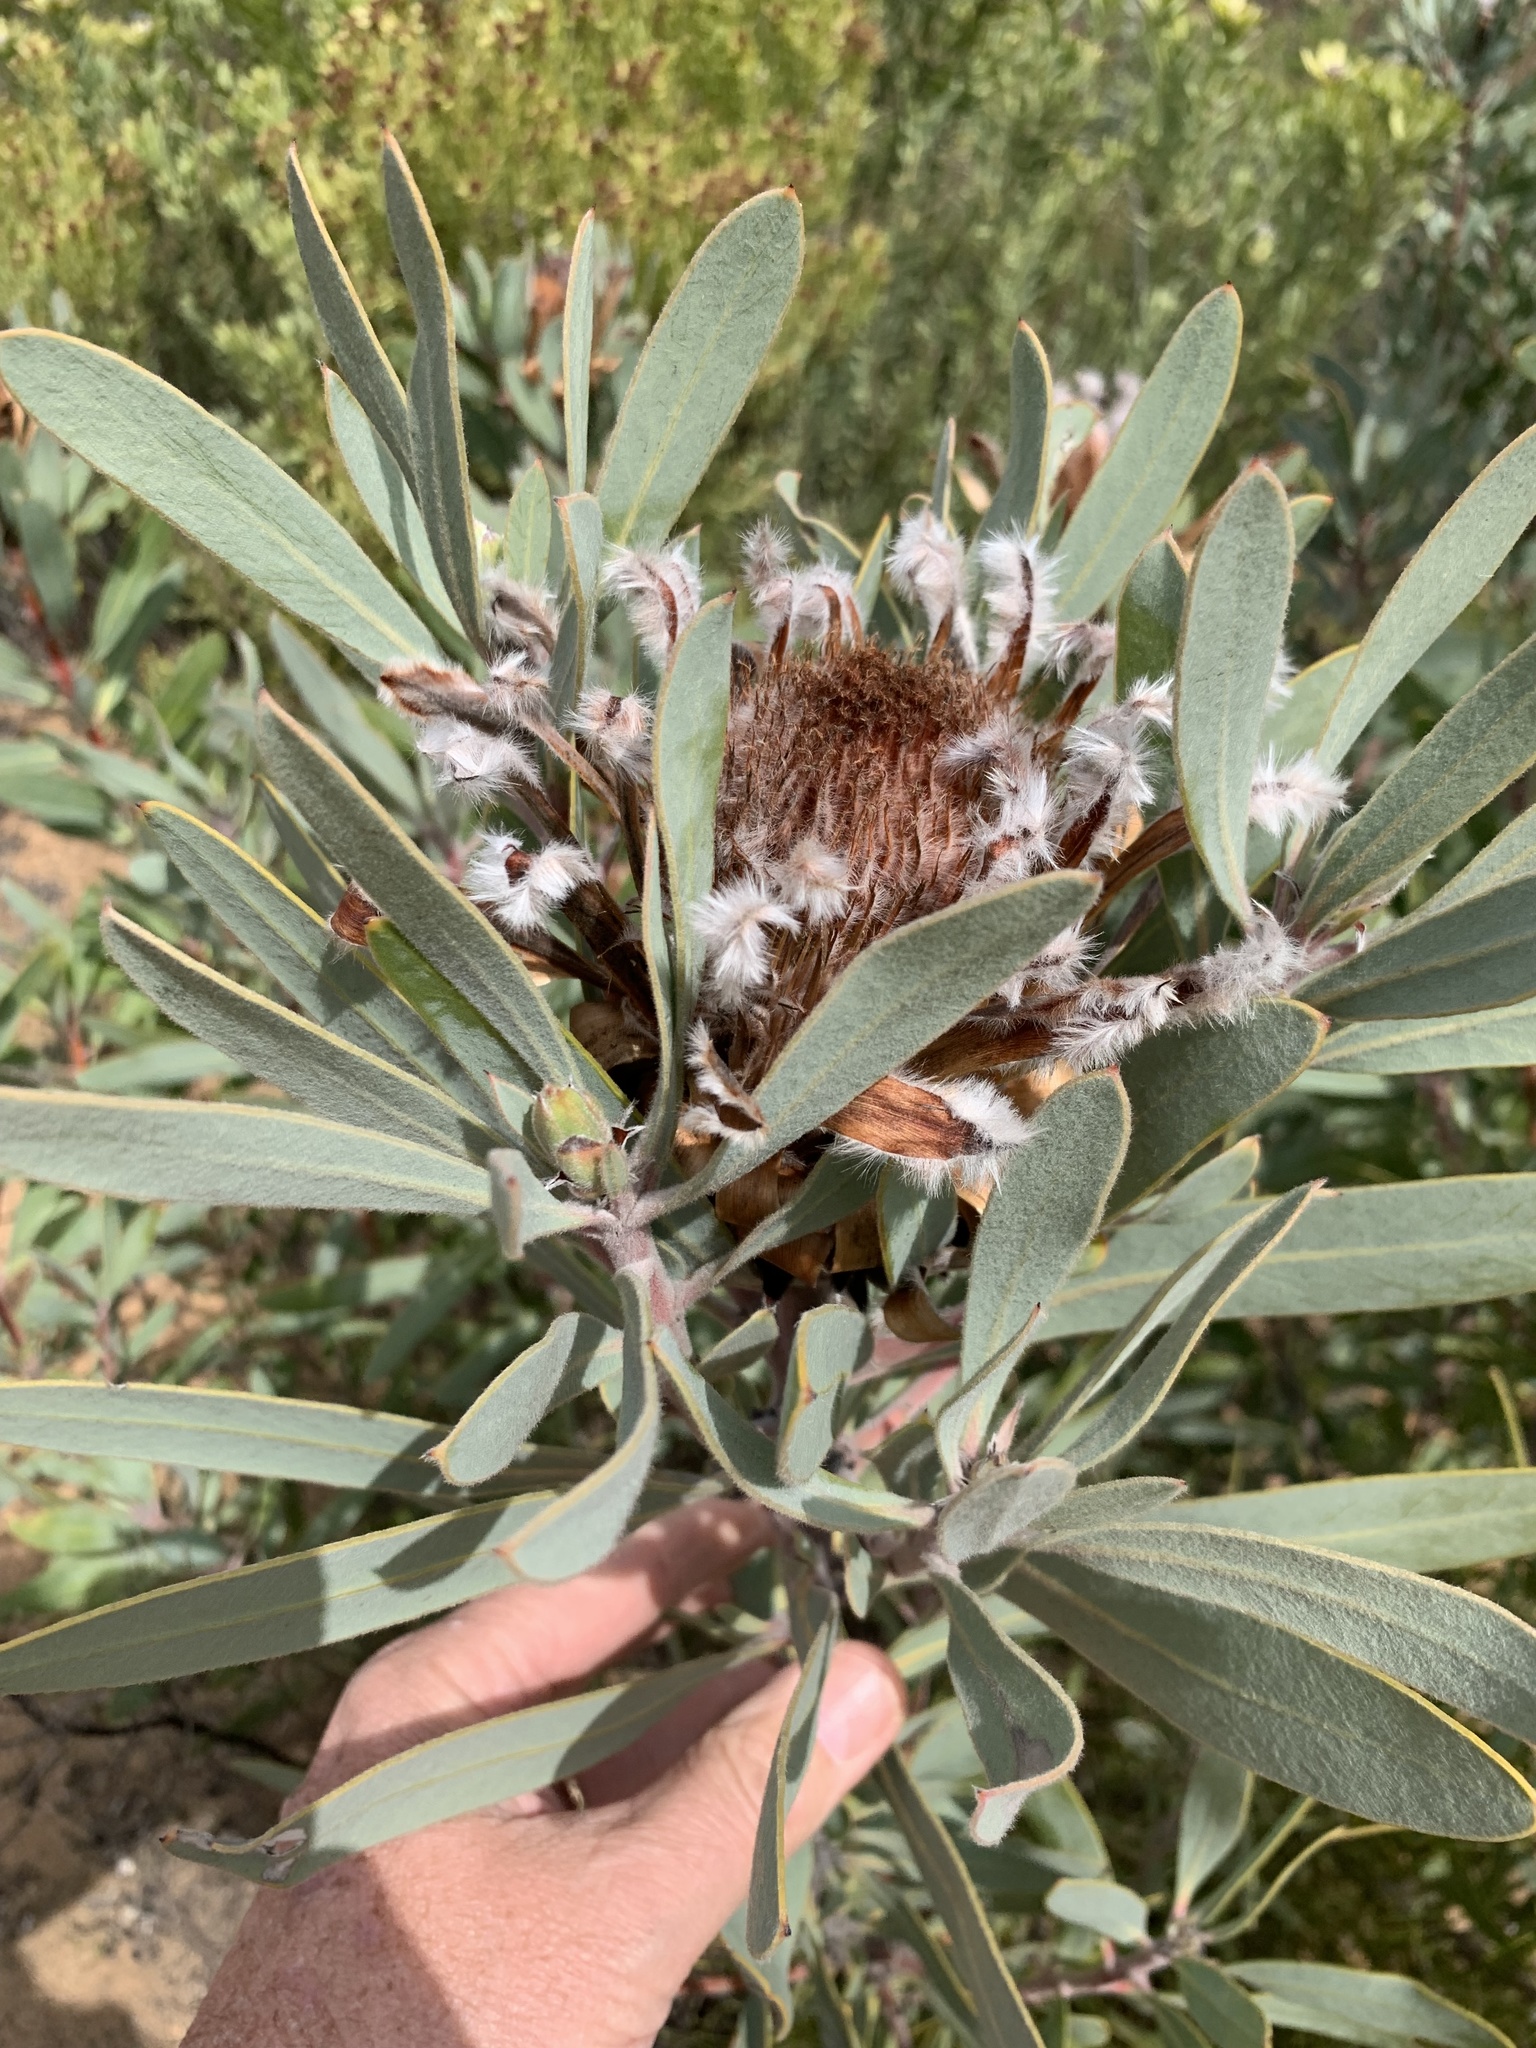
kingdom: Plantae
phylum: Tracheophyta
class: Magnoliopsida
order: Proteales
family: Proteaceae
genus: Protea
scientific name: Protea laurifolia
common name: Grey-leaf sugarbsh
